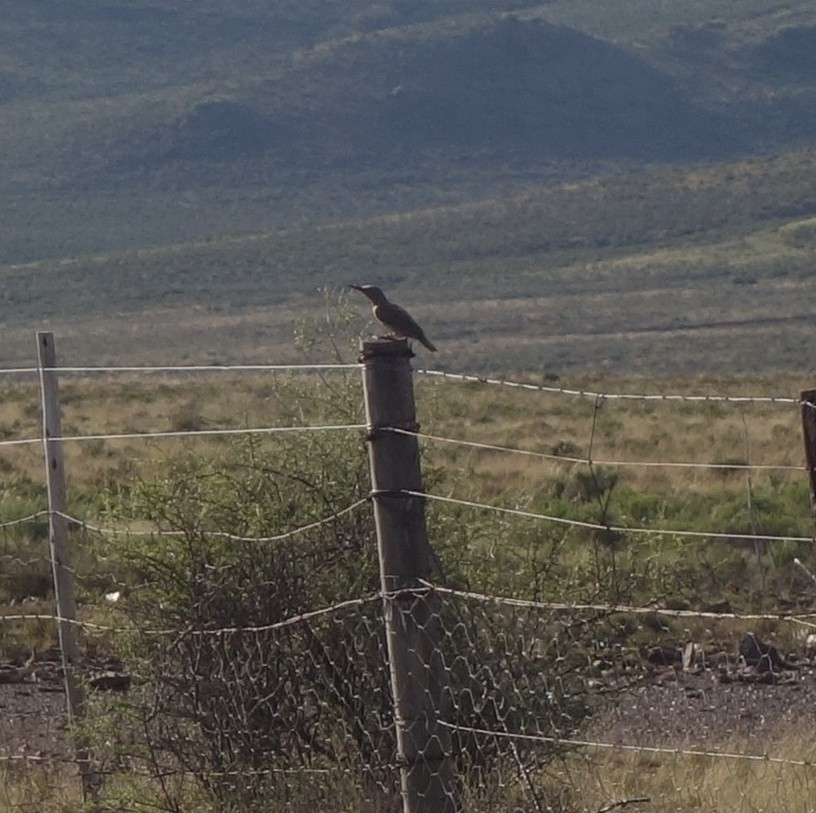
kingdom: Animalia
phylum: Chordata
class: Aves
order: Piciformes
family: Picidae
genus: Geocolaptes
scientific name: Geocolaptes olivaceus
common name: Ground woodpecker
